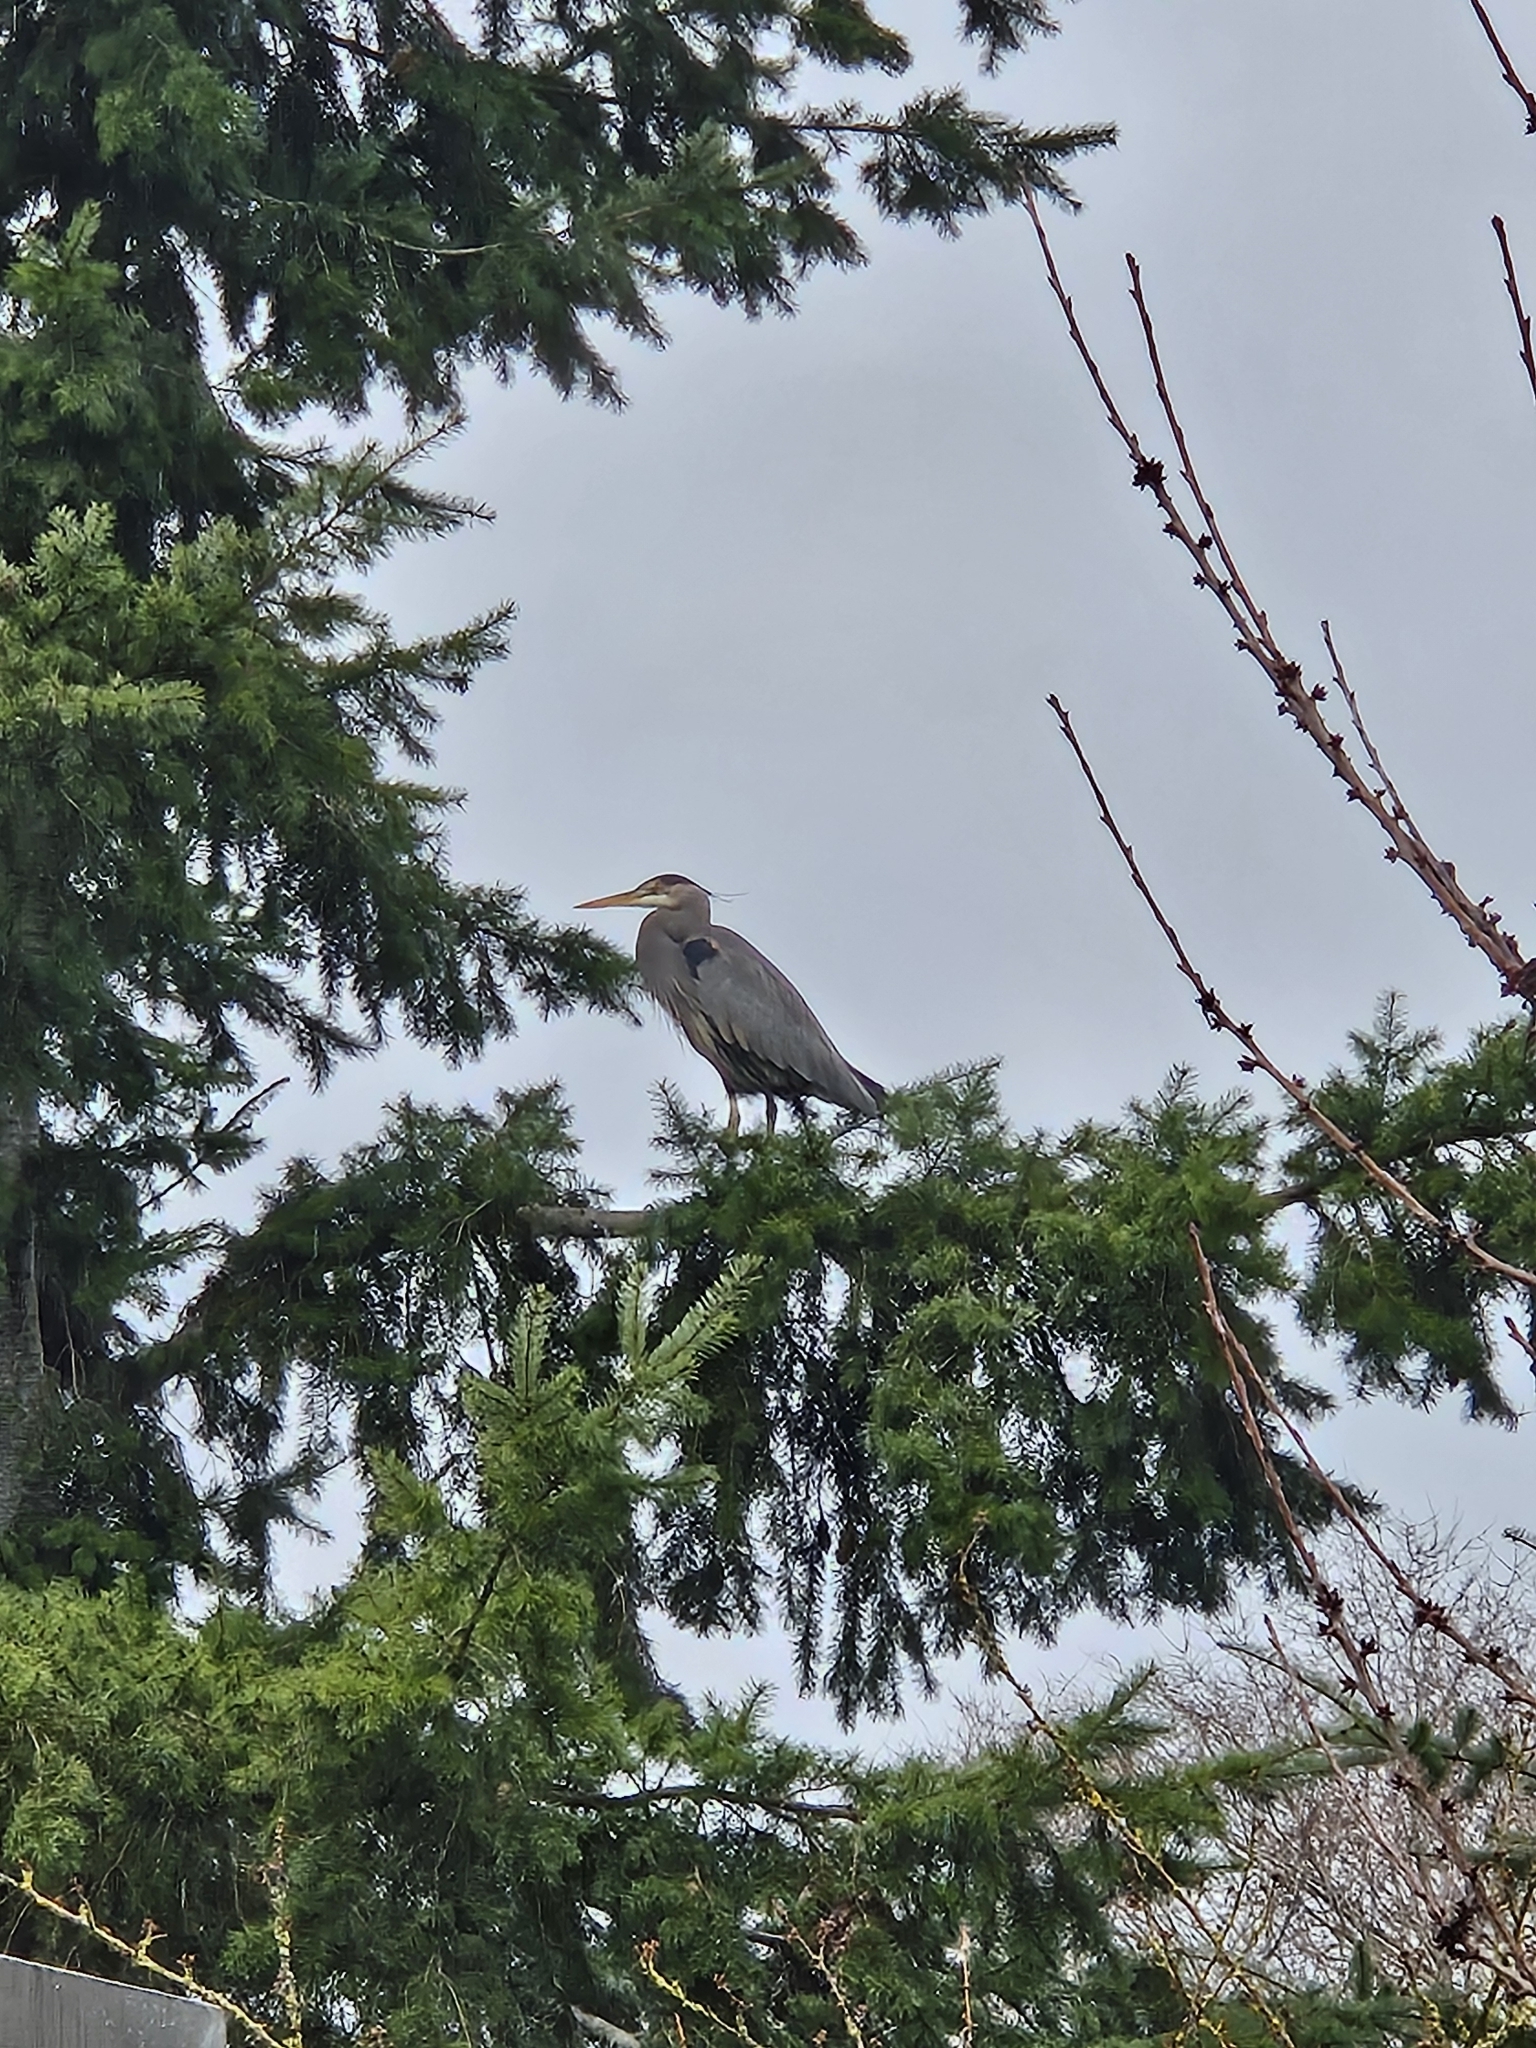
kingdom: Animalia
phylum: Chordata
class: Aves
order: Pelecaniformes
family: Ardeidae
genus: Ardea
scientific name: Ardea herodias
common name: Great blue heron
